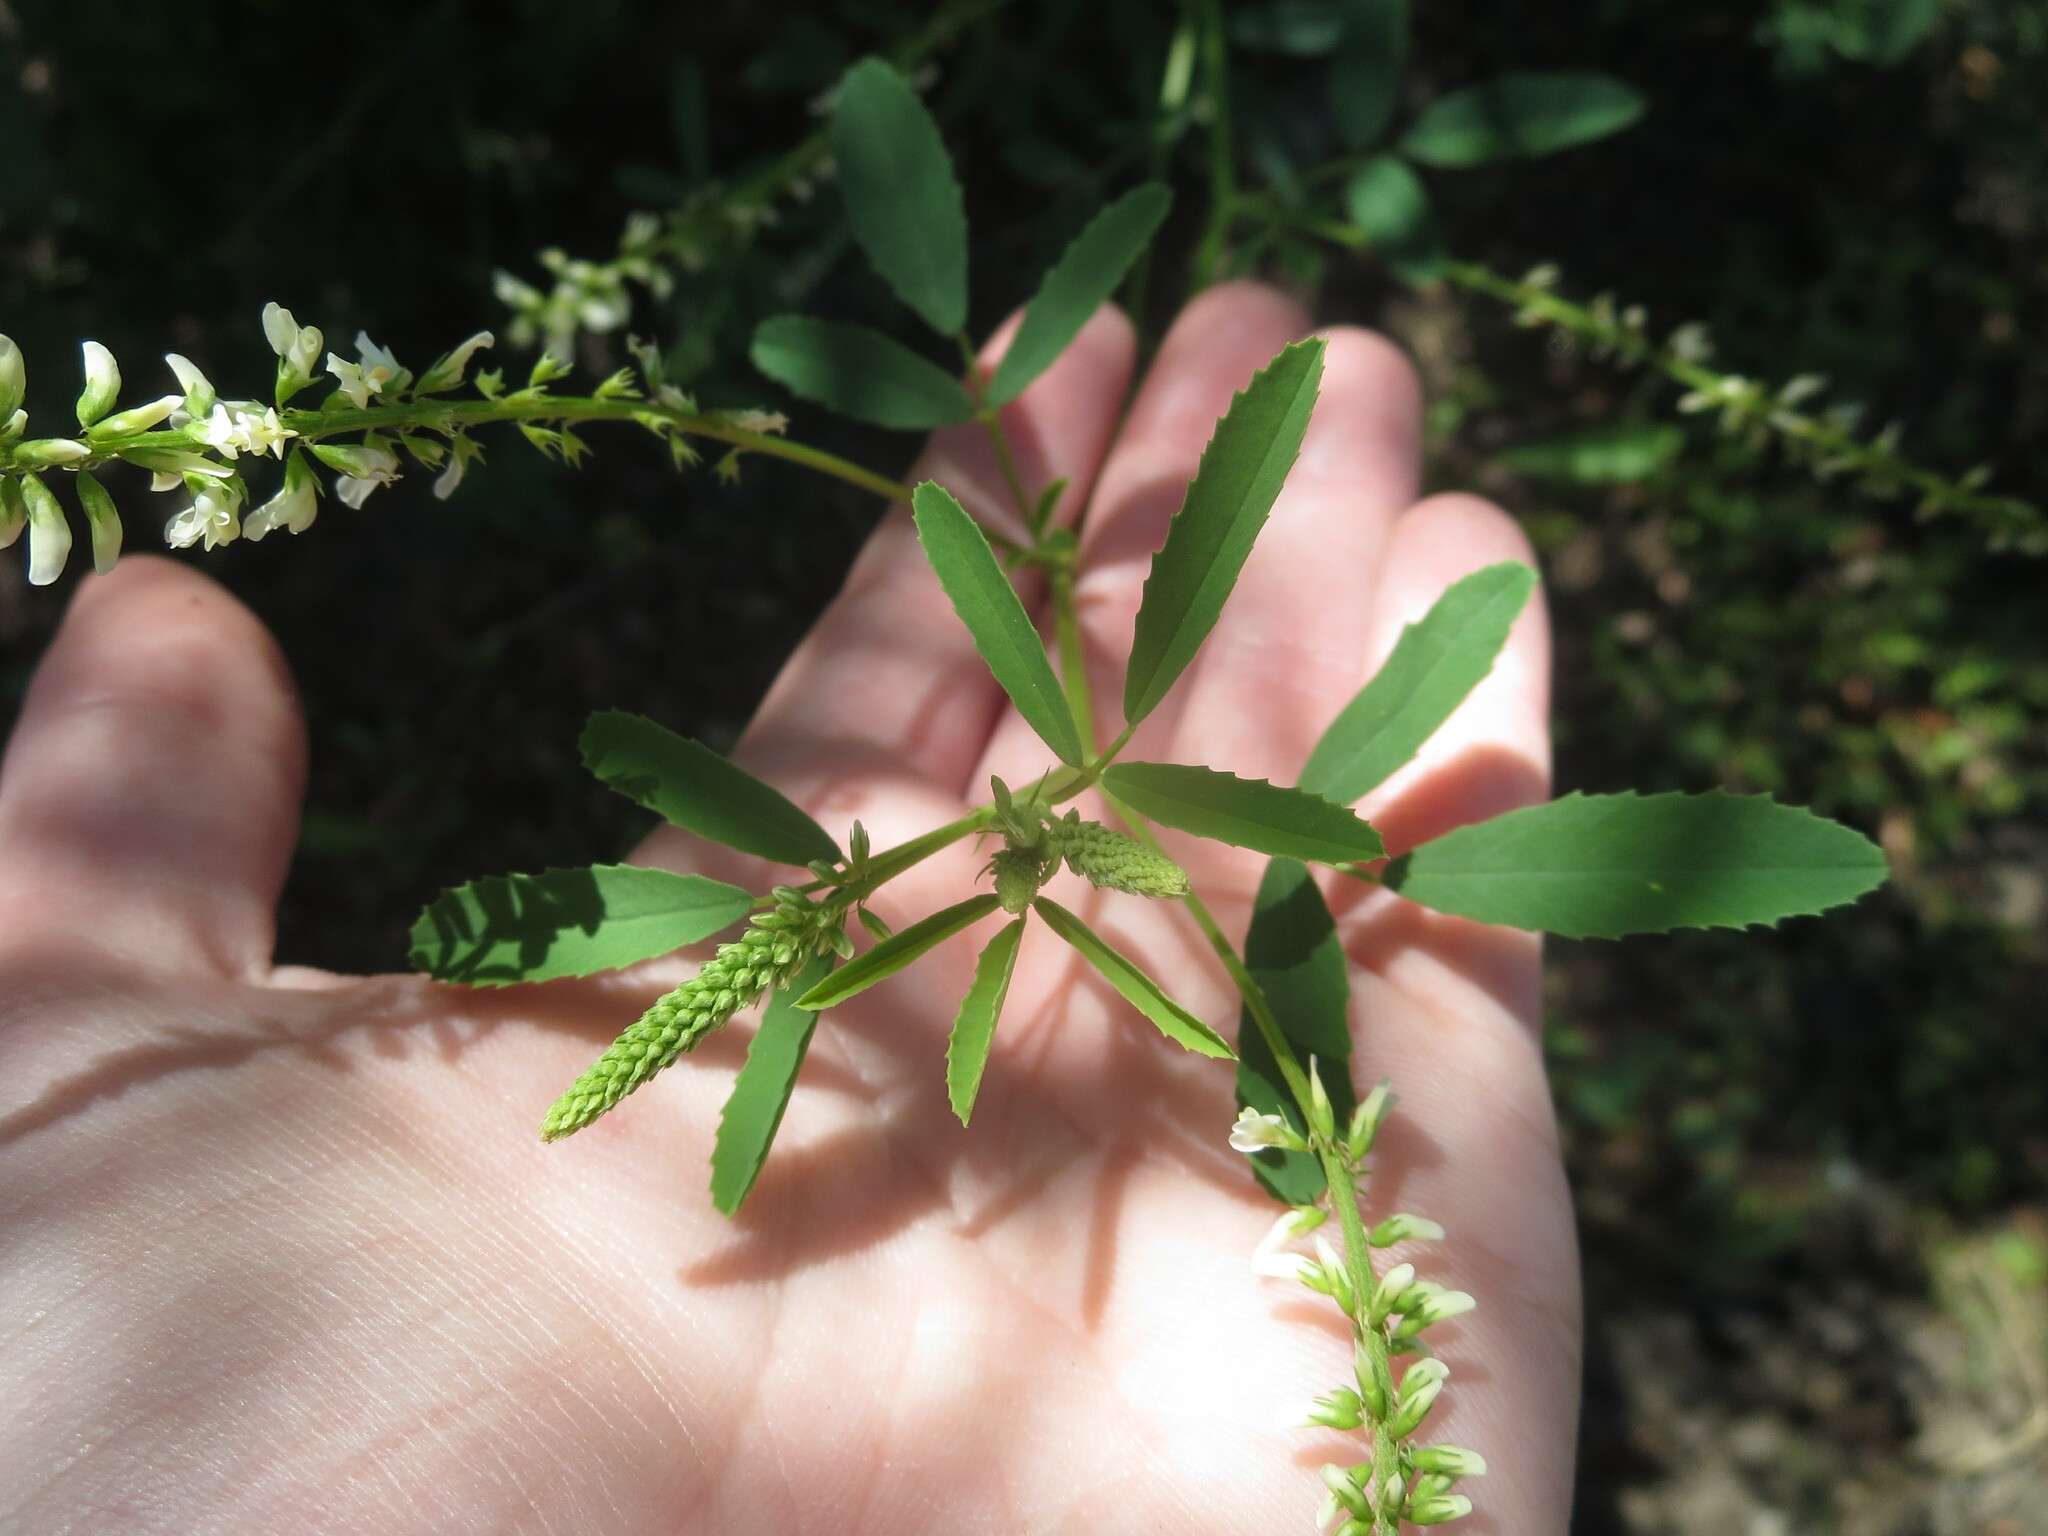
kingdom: Plantae
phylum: Tracheophyta
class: Magnoliopsida
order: Fabales
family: Fabaceae
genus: Melilotus
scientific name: Melilotus albus
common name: White melilot
